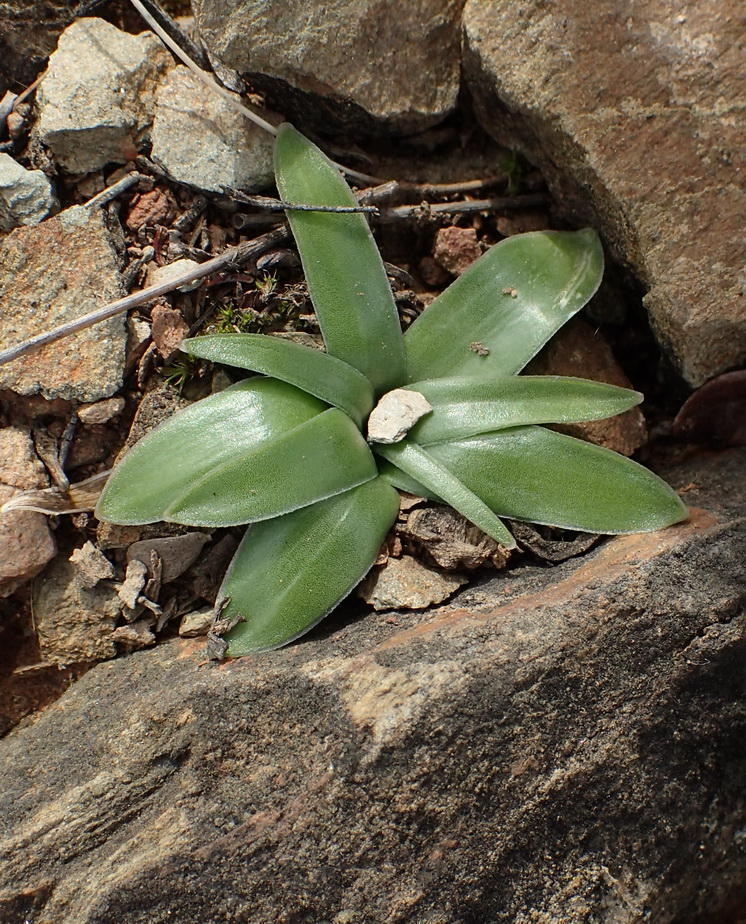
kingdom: Plantae
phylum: Tracheophyta
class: Liliopsida
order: Asparagales
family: Asparagaceae
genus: Drimia
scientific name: Drimia ciliata
